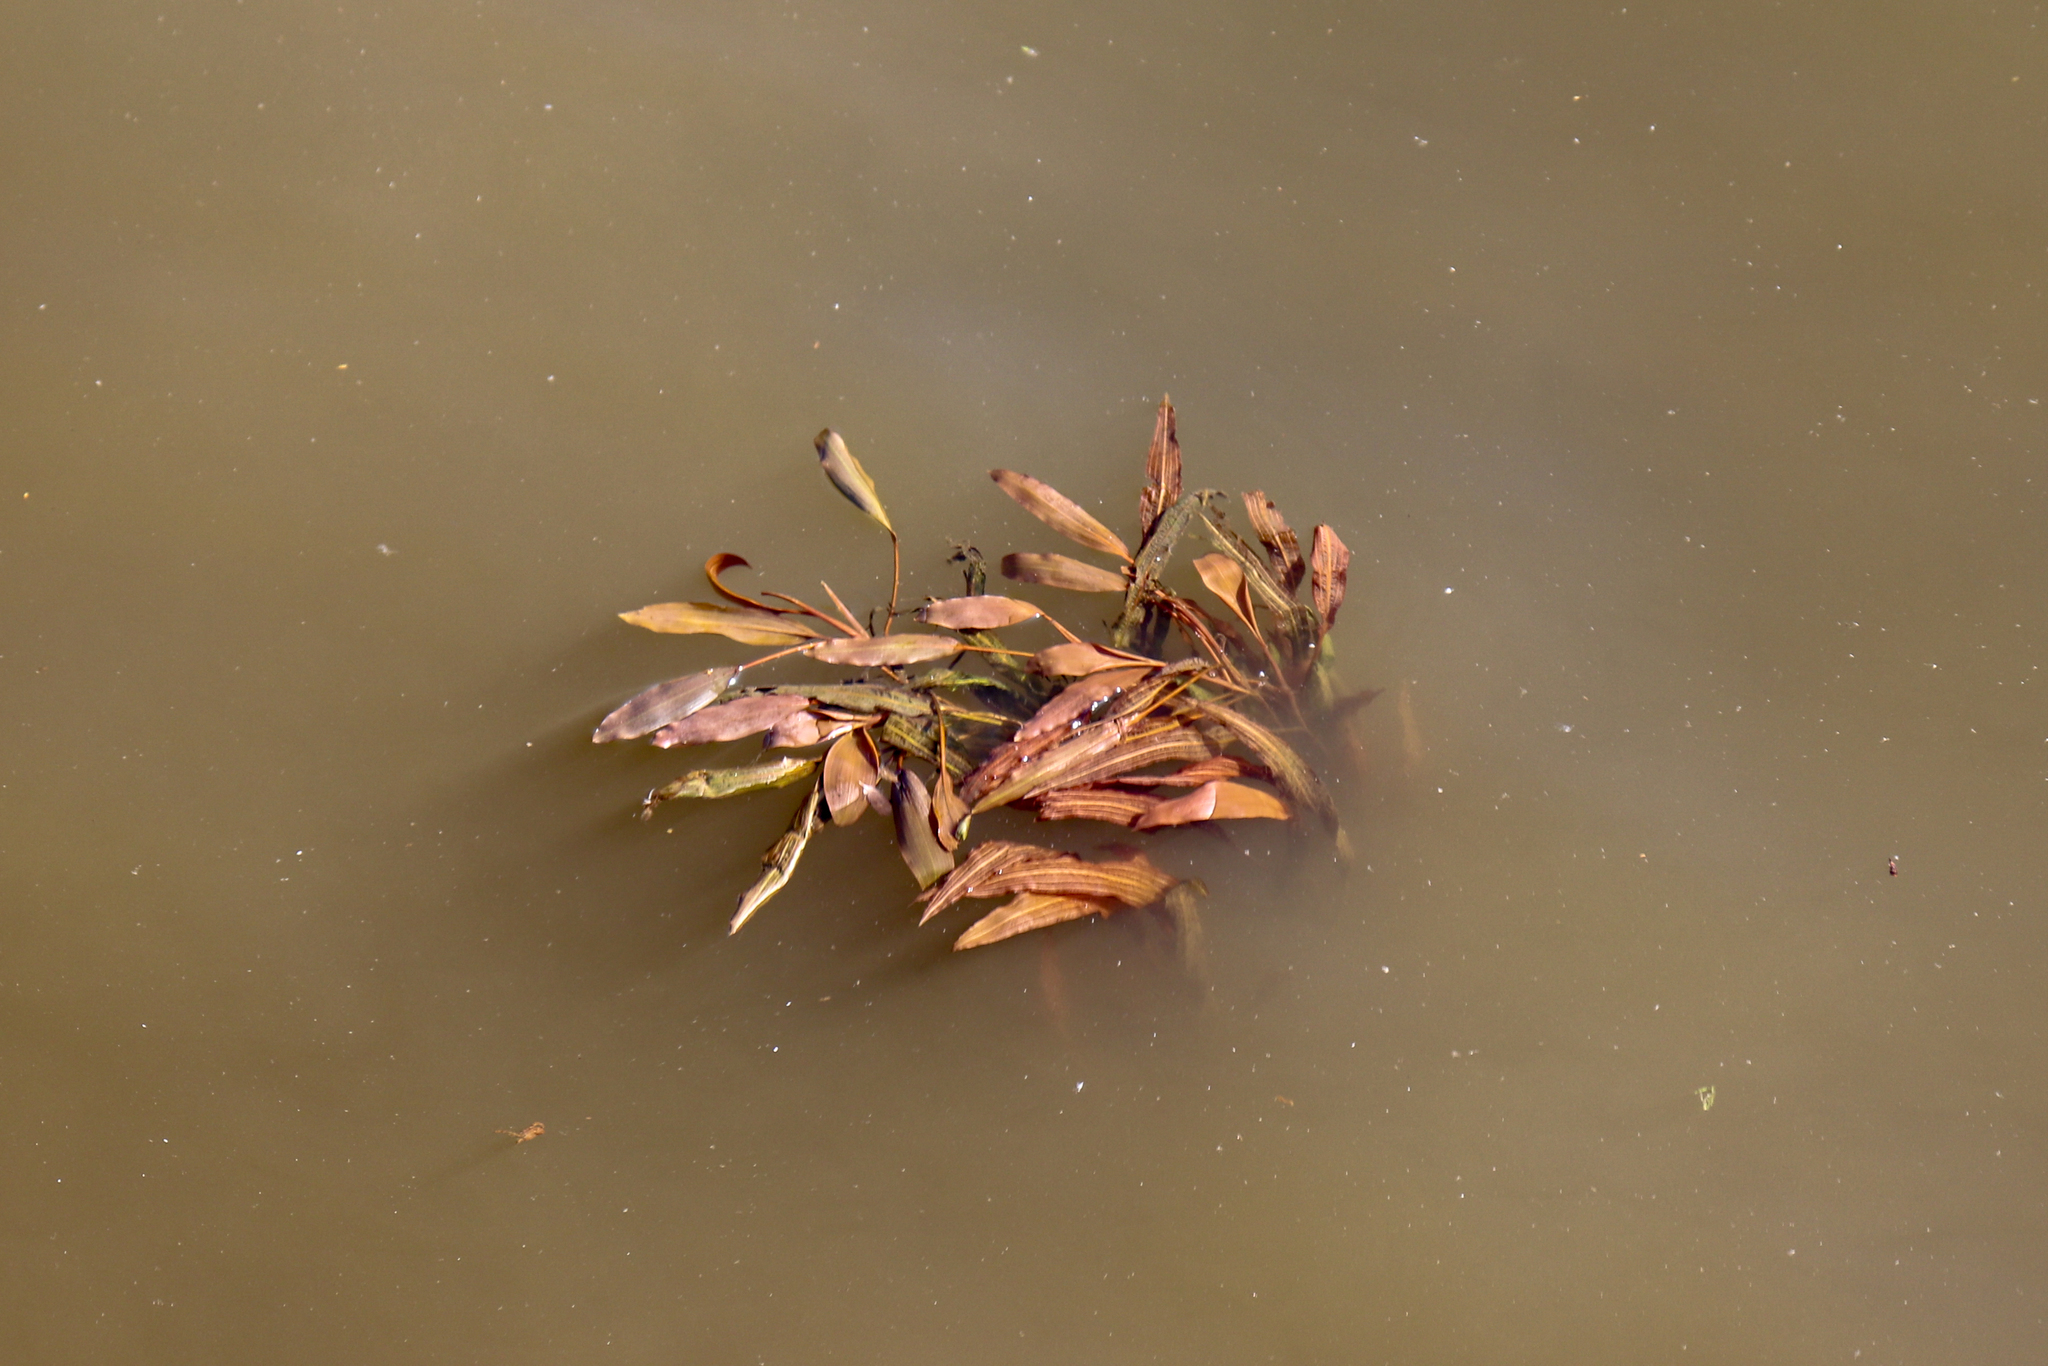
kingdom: Plantae
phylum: Tracheophyta
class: Liliopsida
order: Alismatales
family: Potamogetonaceae
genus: Potamogeton
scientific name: Potamogeton nodosus
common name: Loddon pondweed
